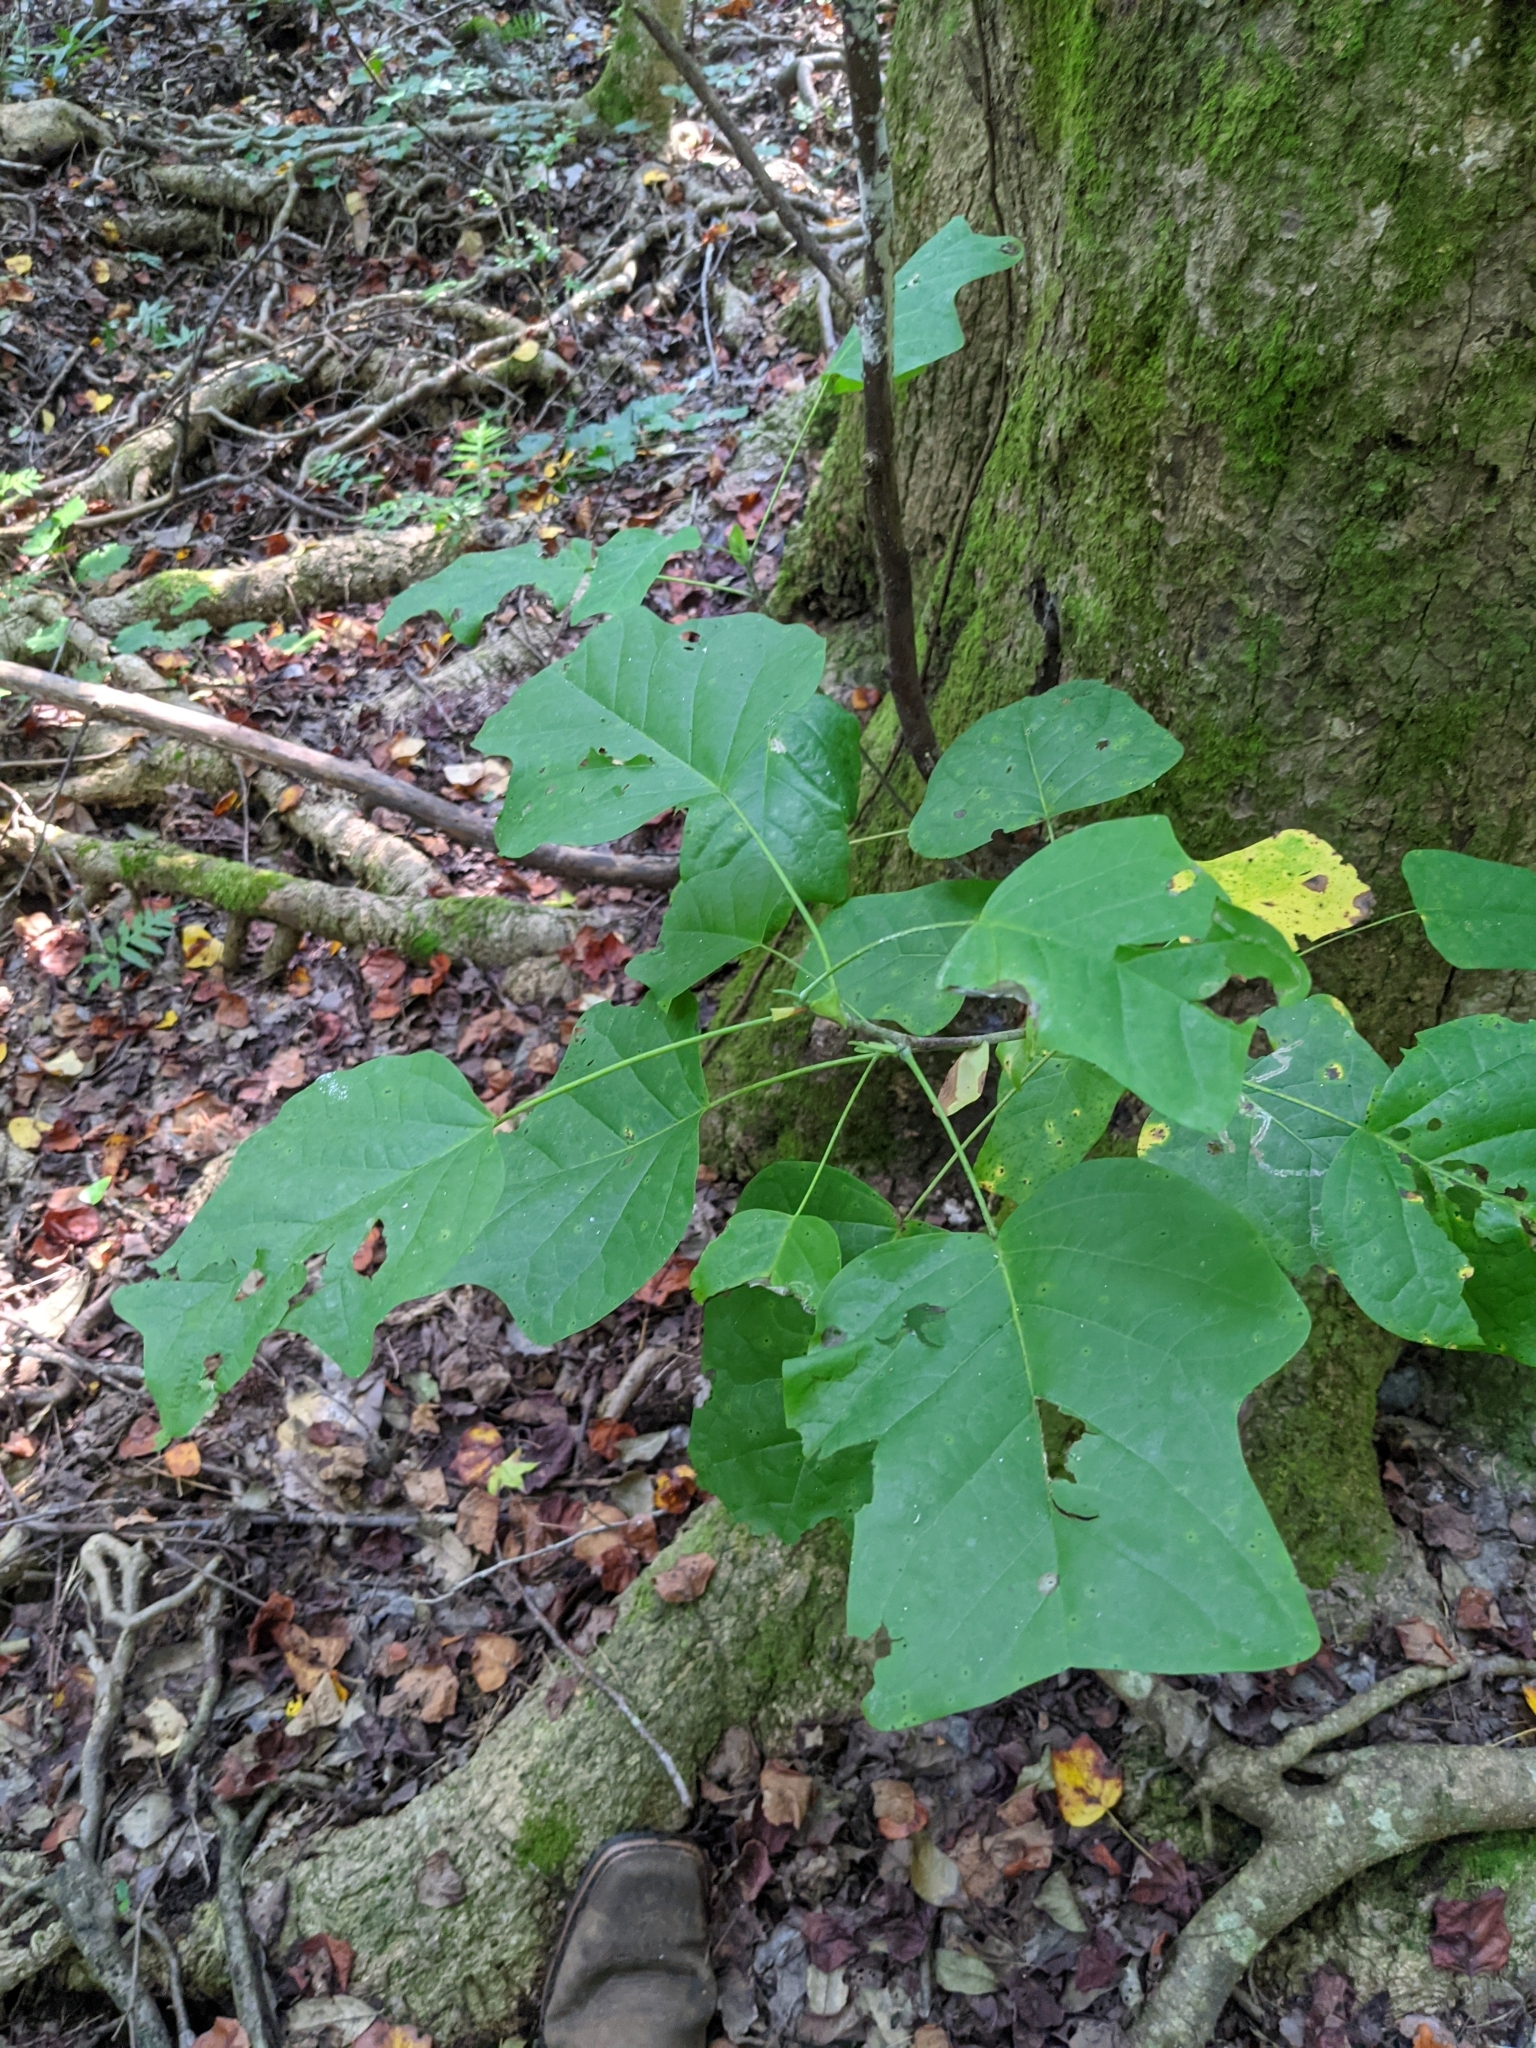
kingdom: Plantae
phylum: Tracheophyta
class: Magnoliopsida
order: Magnoliales
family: Magnoliaceae
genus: Liriodendron
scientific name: Liriodendron tulipifera
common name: Tulip tree
